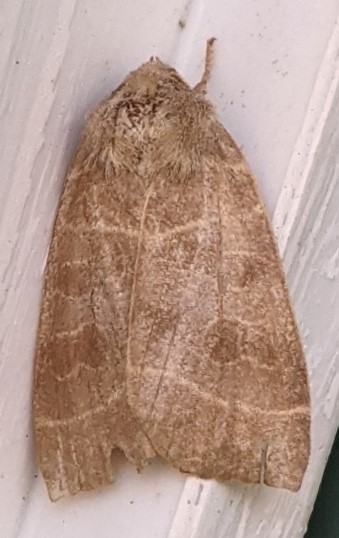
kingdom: Animalia
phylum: Arthropoda
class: Insecta
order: Lepidoptera
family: Noctuidae
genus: Ipimorpha
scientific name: Ipimorpha pleonectusa
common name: Even-lined sallow
